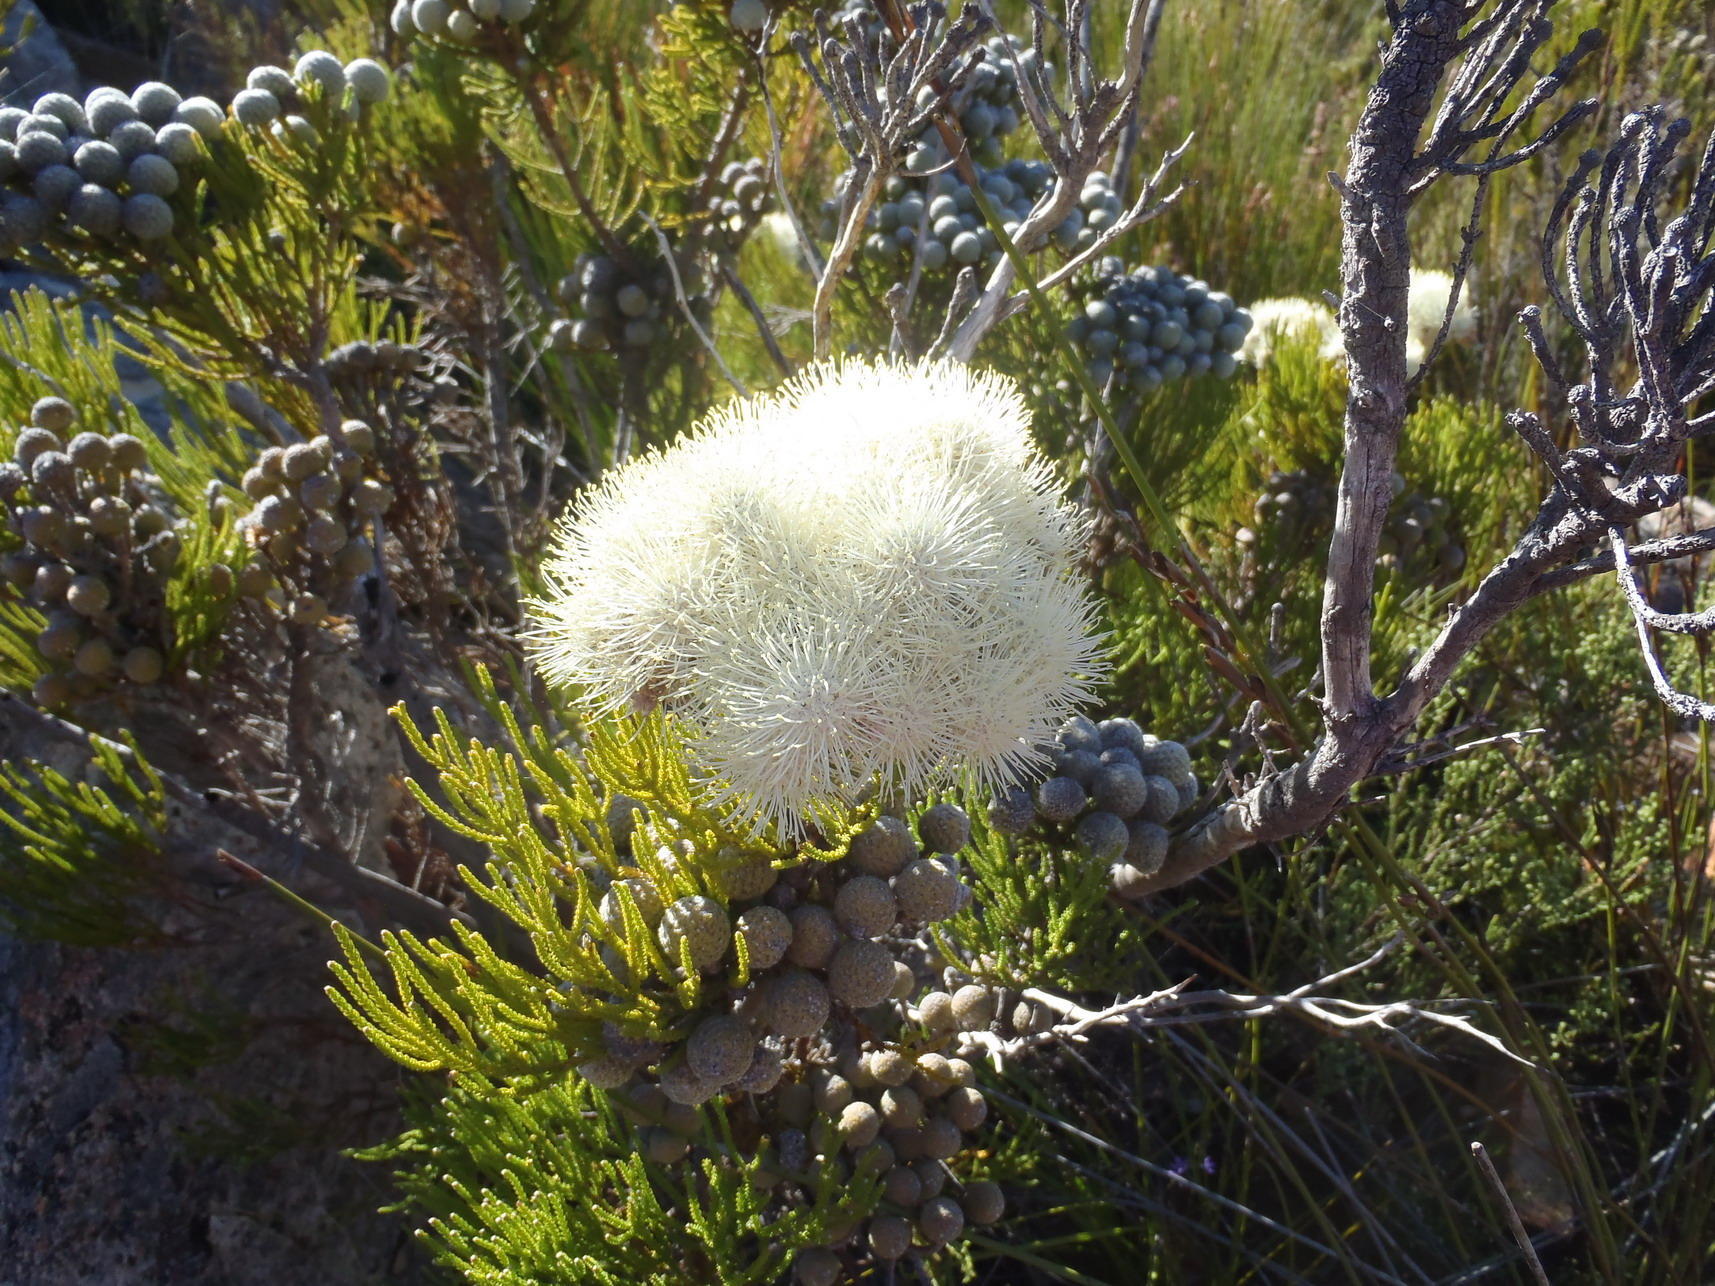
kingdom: Plantae
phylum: Tracheophyta
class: Magnoliopsida
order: Bruniales
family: Bruniaceae
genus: Brunia
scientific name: Brunia noduliflora
